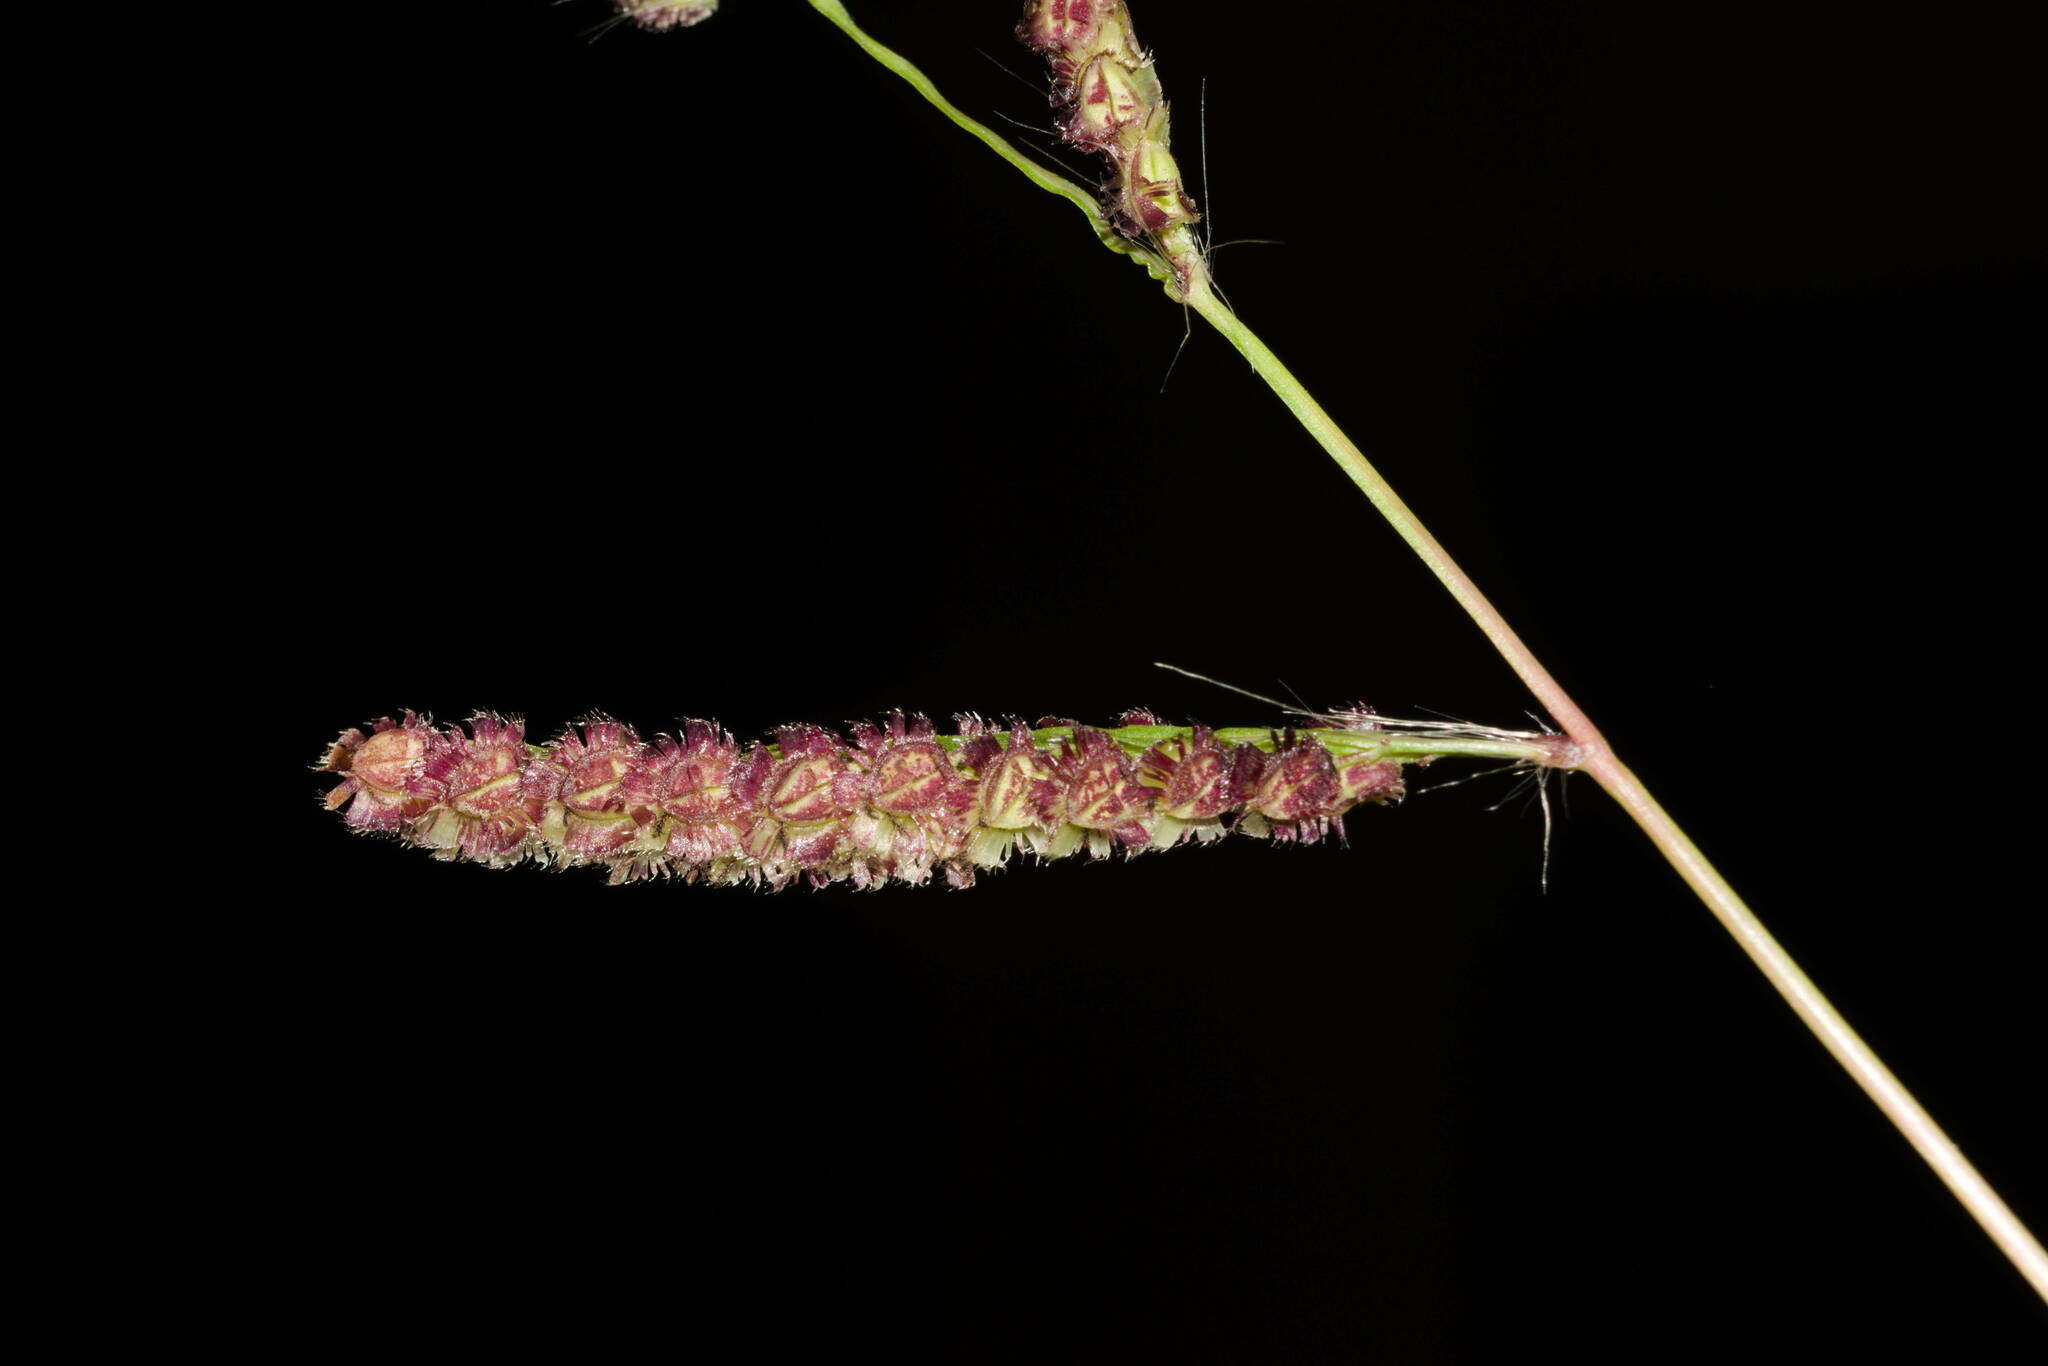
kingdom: Plantae
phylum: Tracheophyta
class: Liliopsida
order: Poales
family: Poaceae
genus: Paspalum
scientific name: Paspalum fimbriatum
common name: Panama crowngrass
